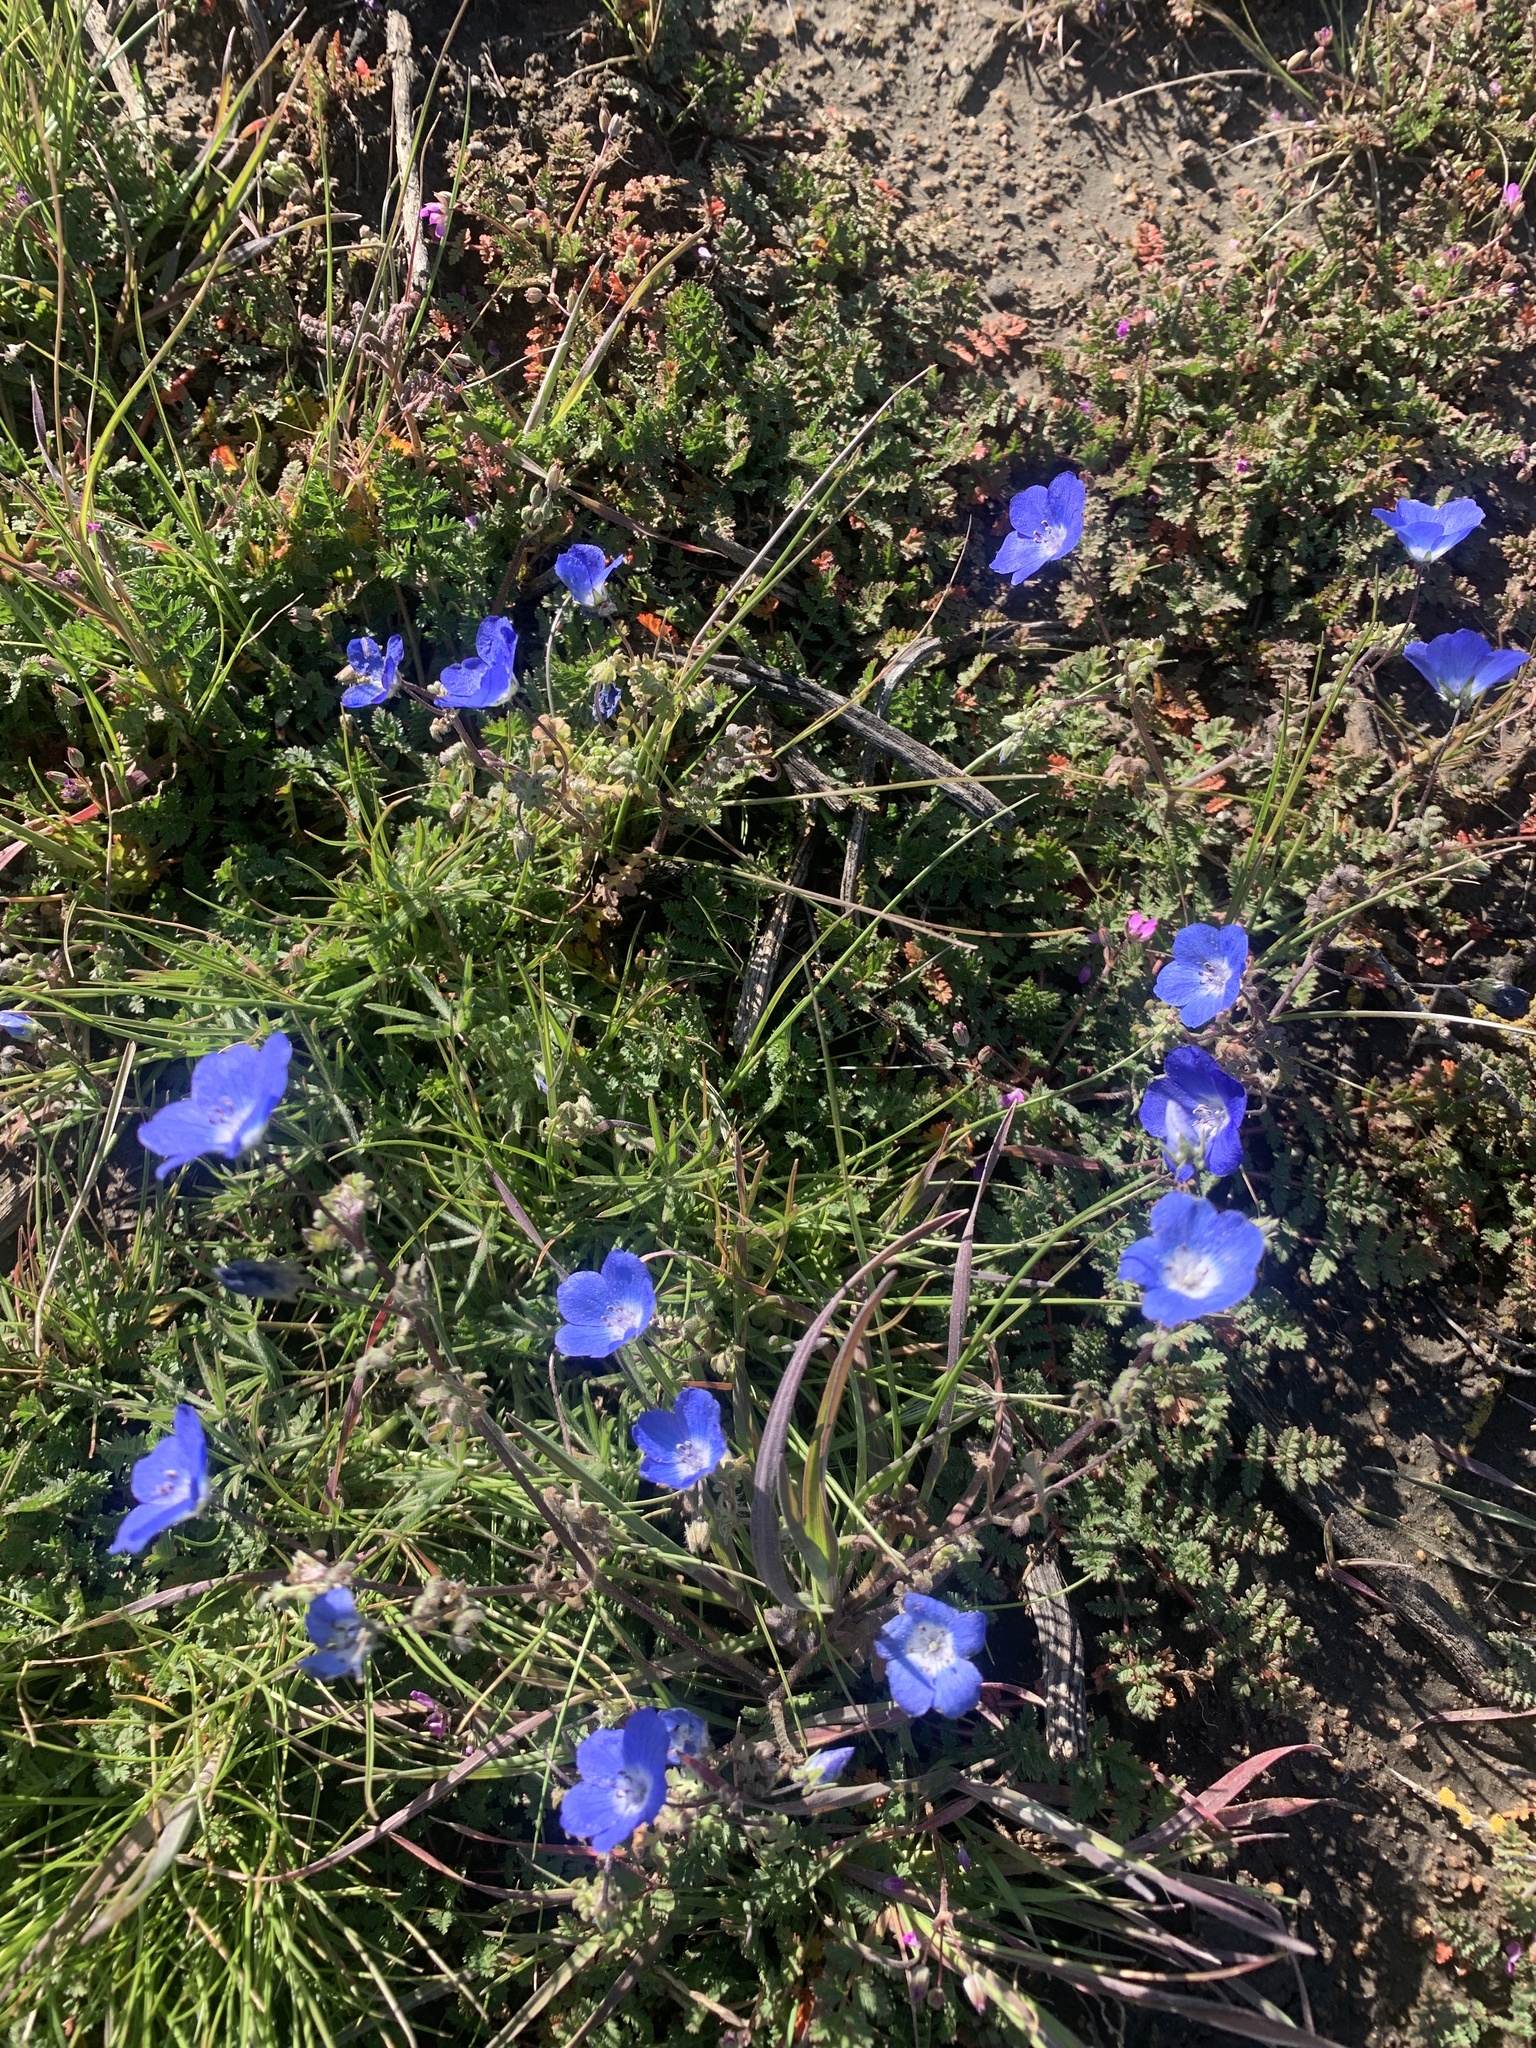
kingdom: Plantae
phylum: Tracheophyta
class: Magnoliopsida
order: Boraginales
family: Hydrophyllaceae
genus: Nemophila
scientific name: Nemophila menziesii
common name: Baby's-blue-eyes
